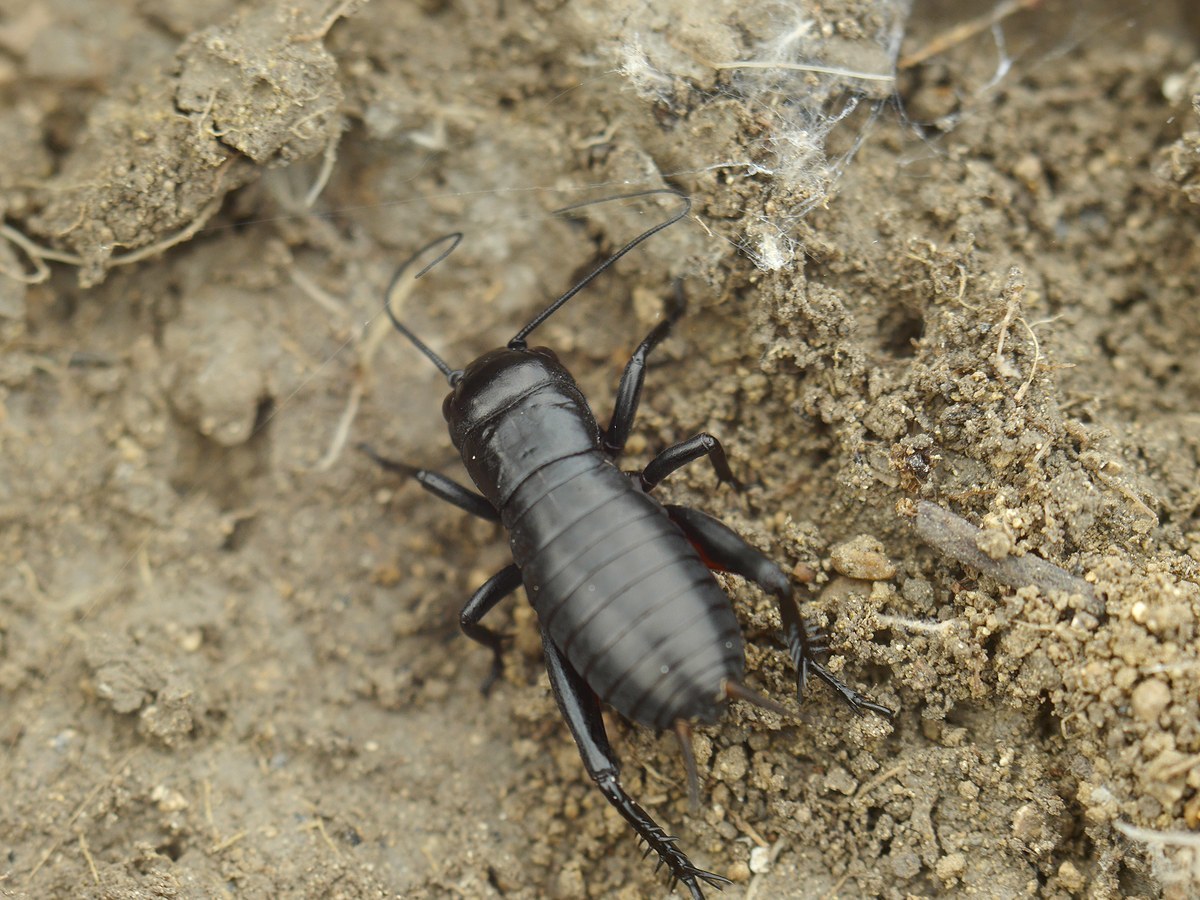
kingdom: Animalia
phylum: Arthropoda
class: Insecta
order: Orthoptera
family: Gryllidae
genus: Gryllus
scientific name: Gryllus campestris
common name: Field cricket
